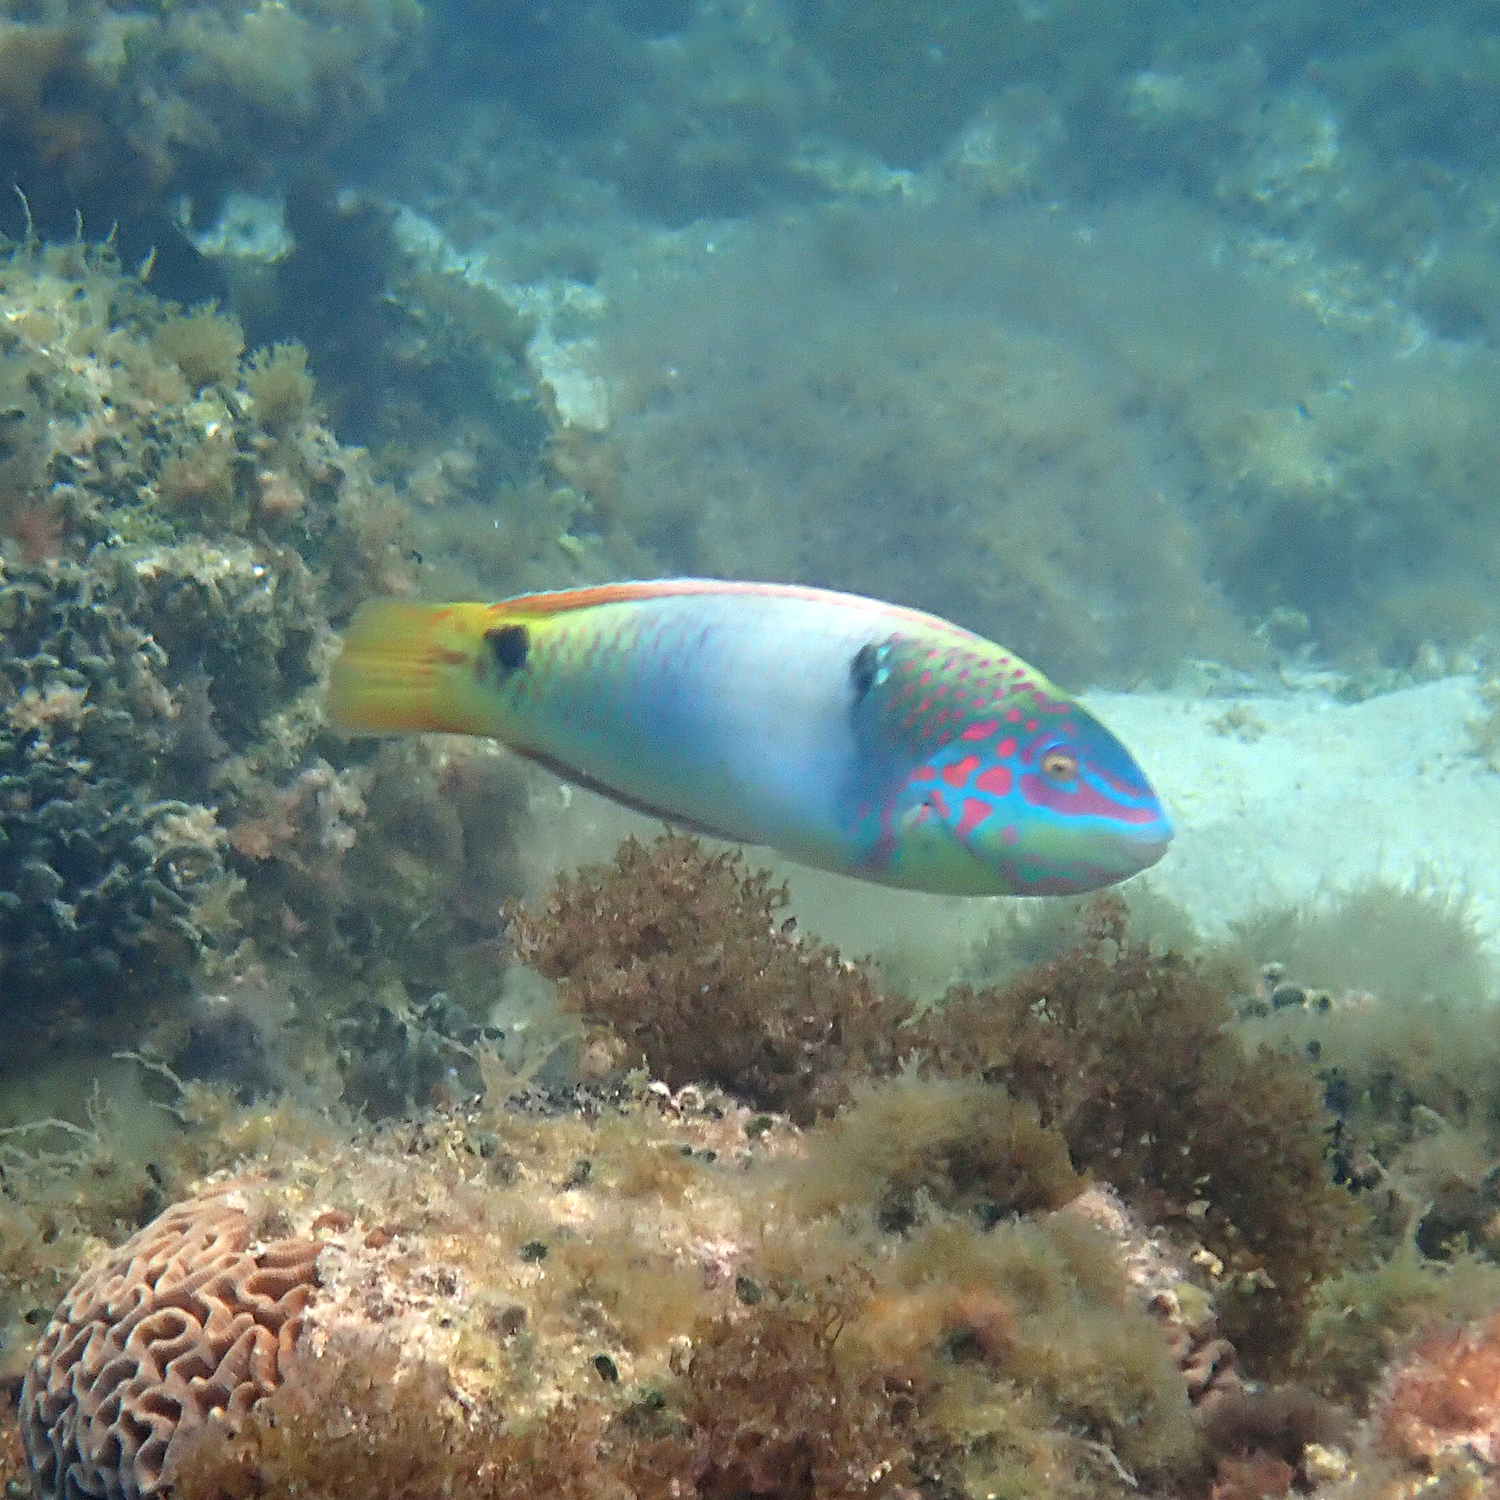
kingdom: Animalia
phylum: Chordata
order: Perciformes
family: Labridae
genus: Halichoeres
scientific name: Halichoeres trimaculatus
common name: Three-spot wrasse
